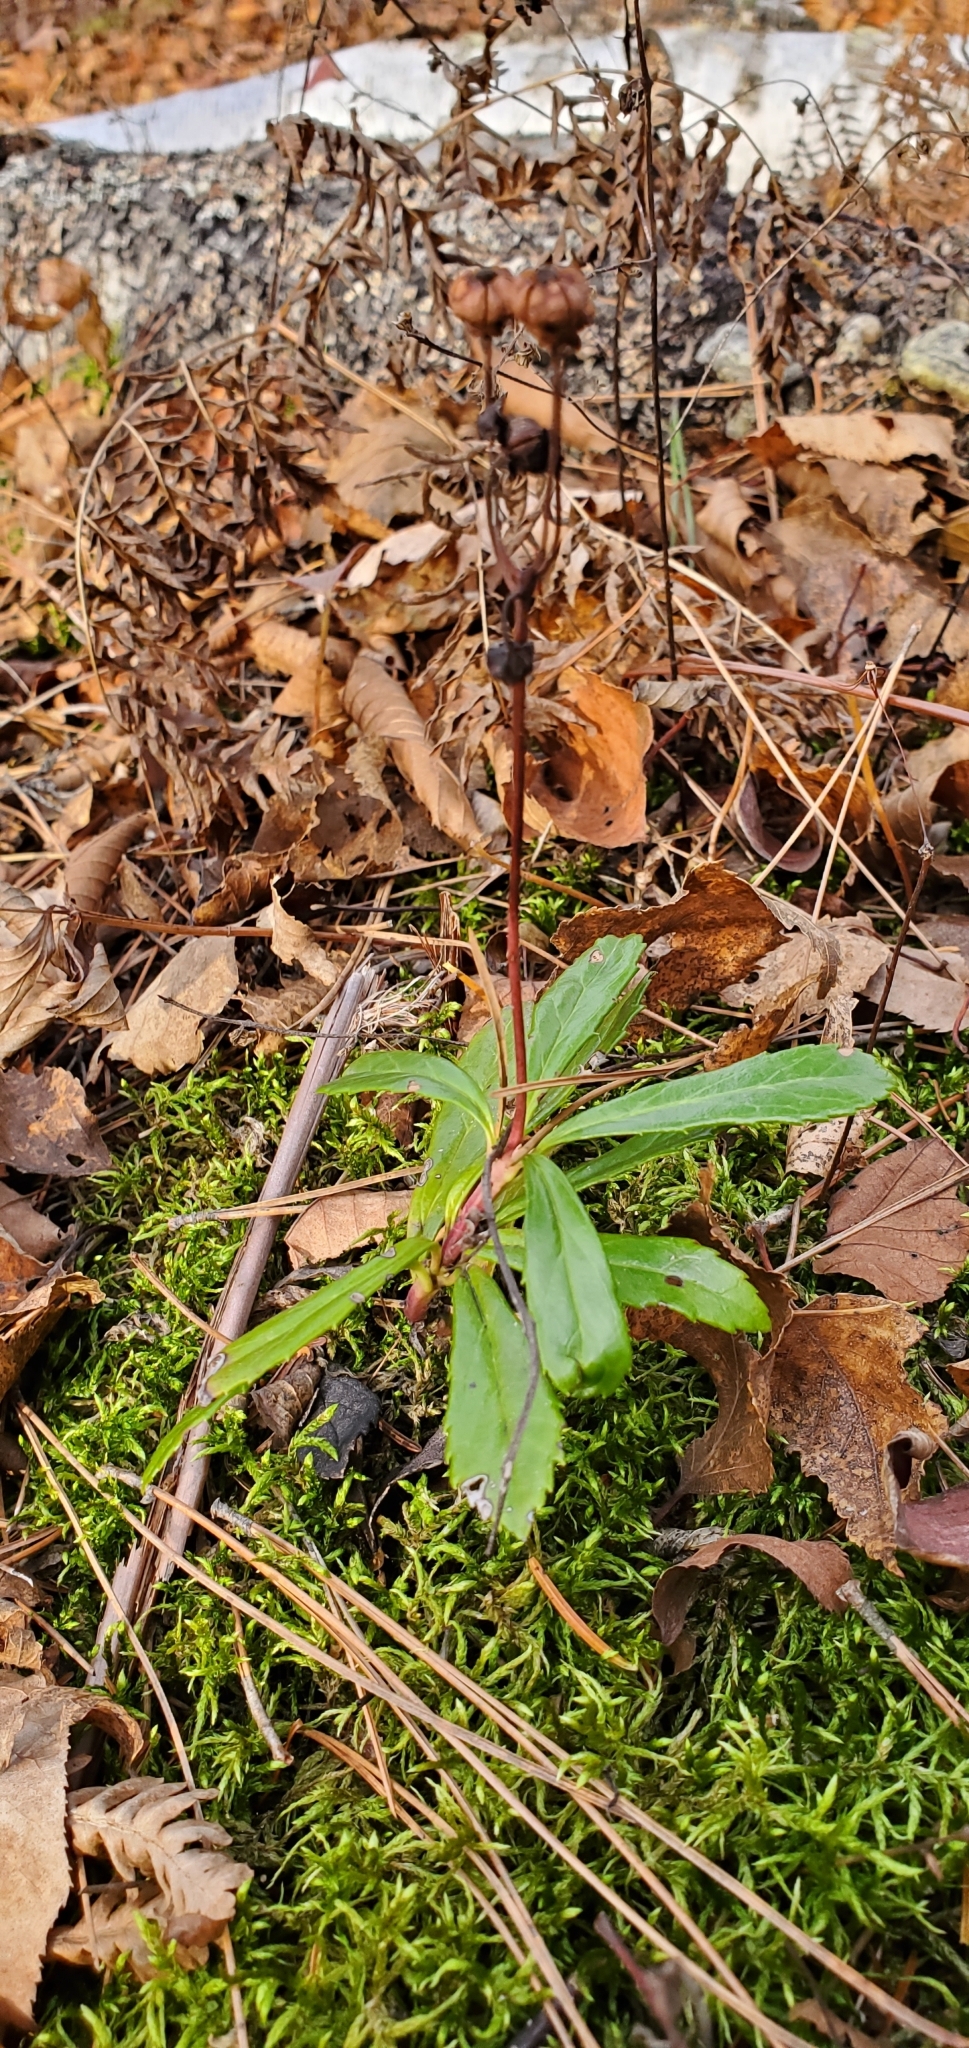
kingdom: Plantae
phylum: Tracheophyta
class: Magnoliopsida
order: Ericales
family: Ericaceae
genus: Chimaphila
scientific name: Chimaphila umbellata
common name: Pipsissewa
